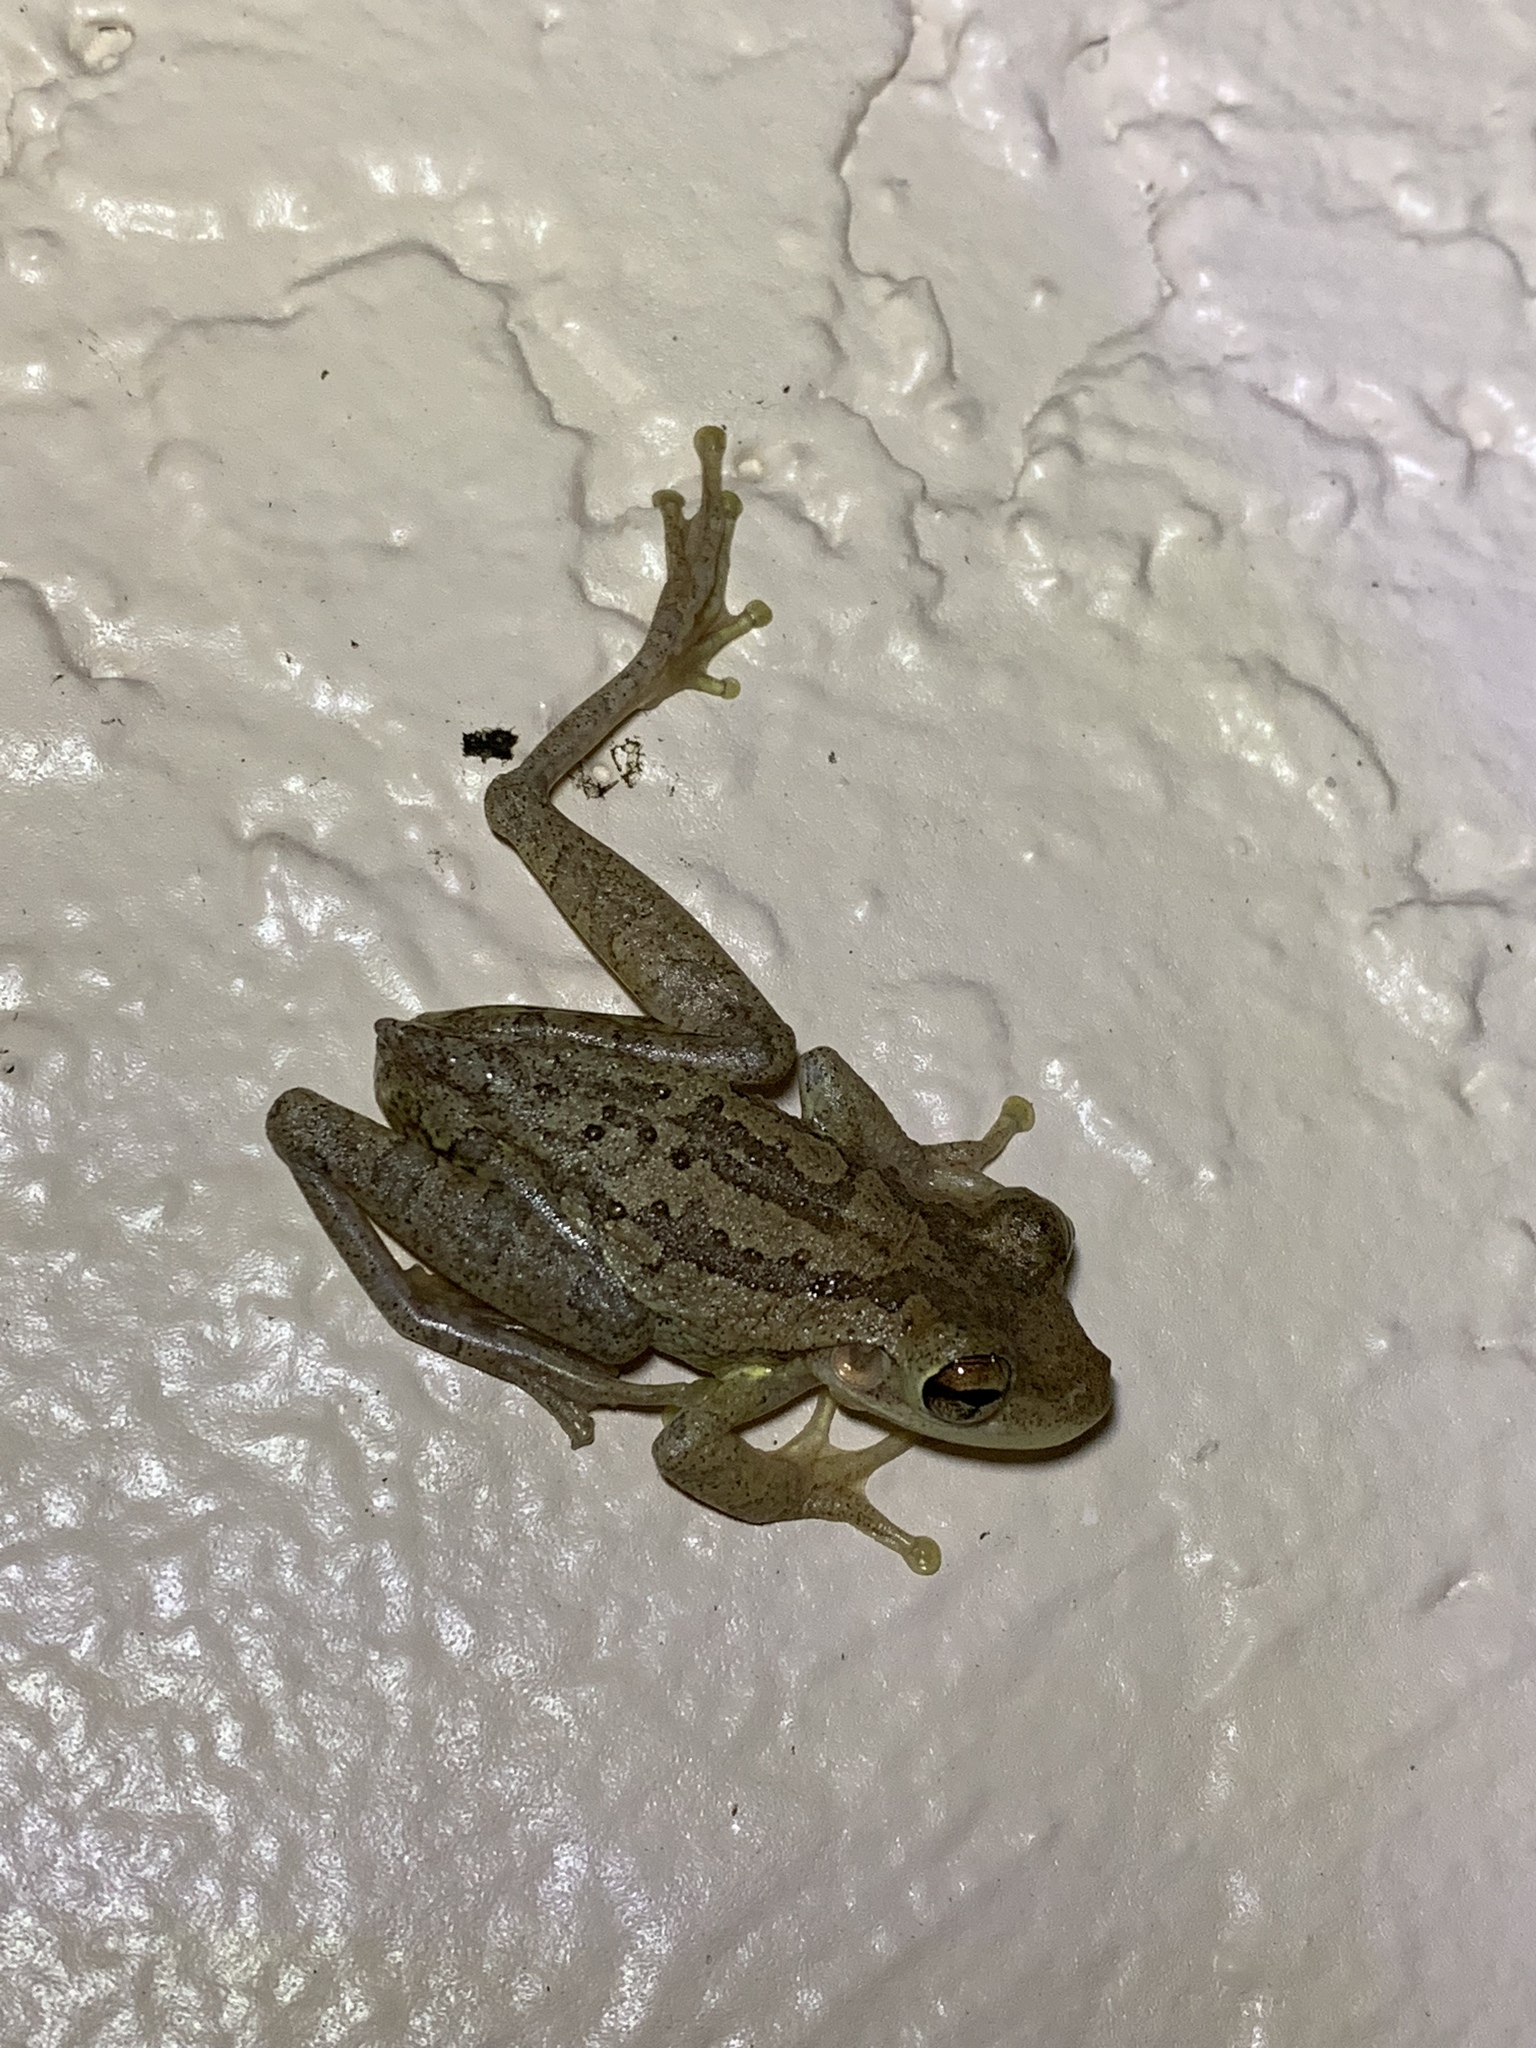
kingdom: Animalia
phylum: Chordata
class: Amphibia
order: Anura
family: Hylidae
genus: Osteopilus
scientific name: Osteopilus septentrionalis
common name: Cuban treefrog
